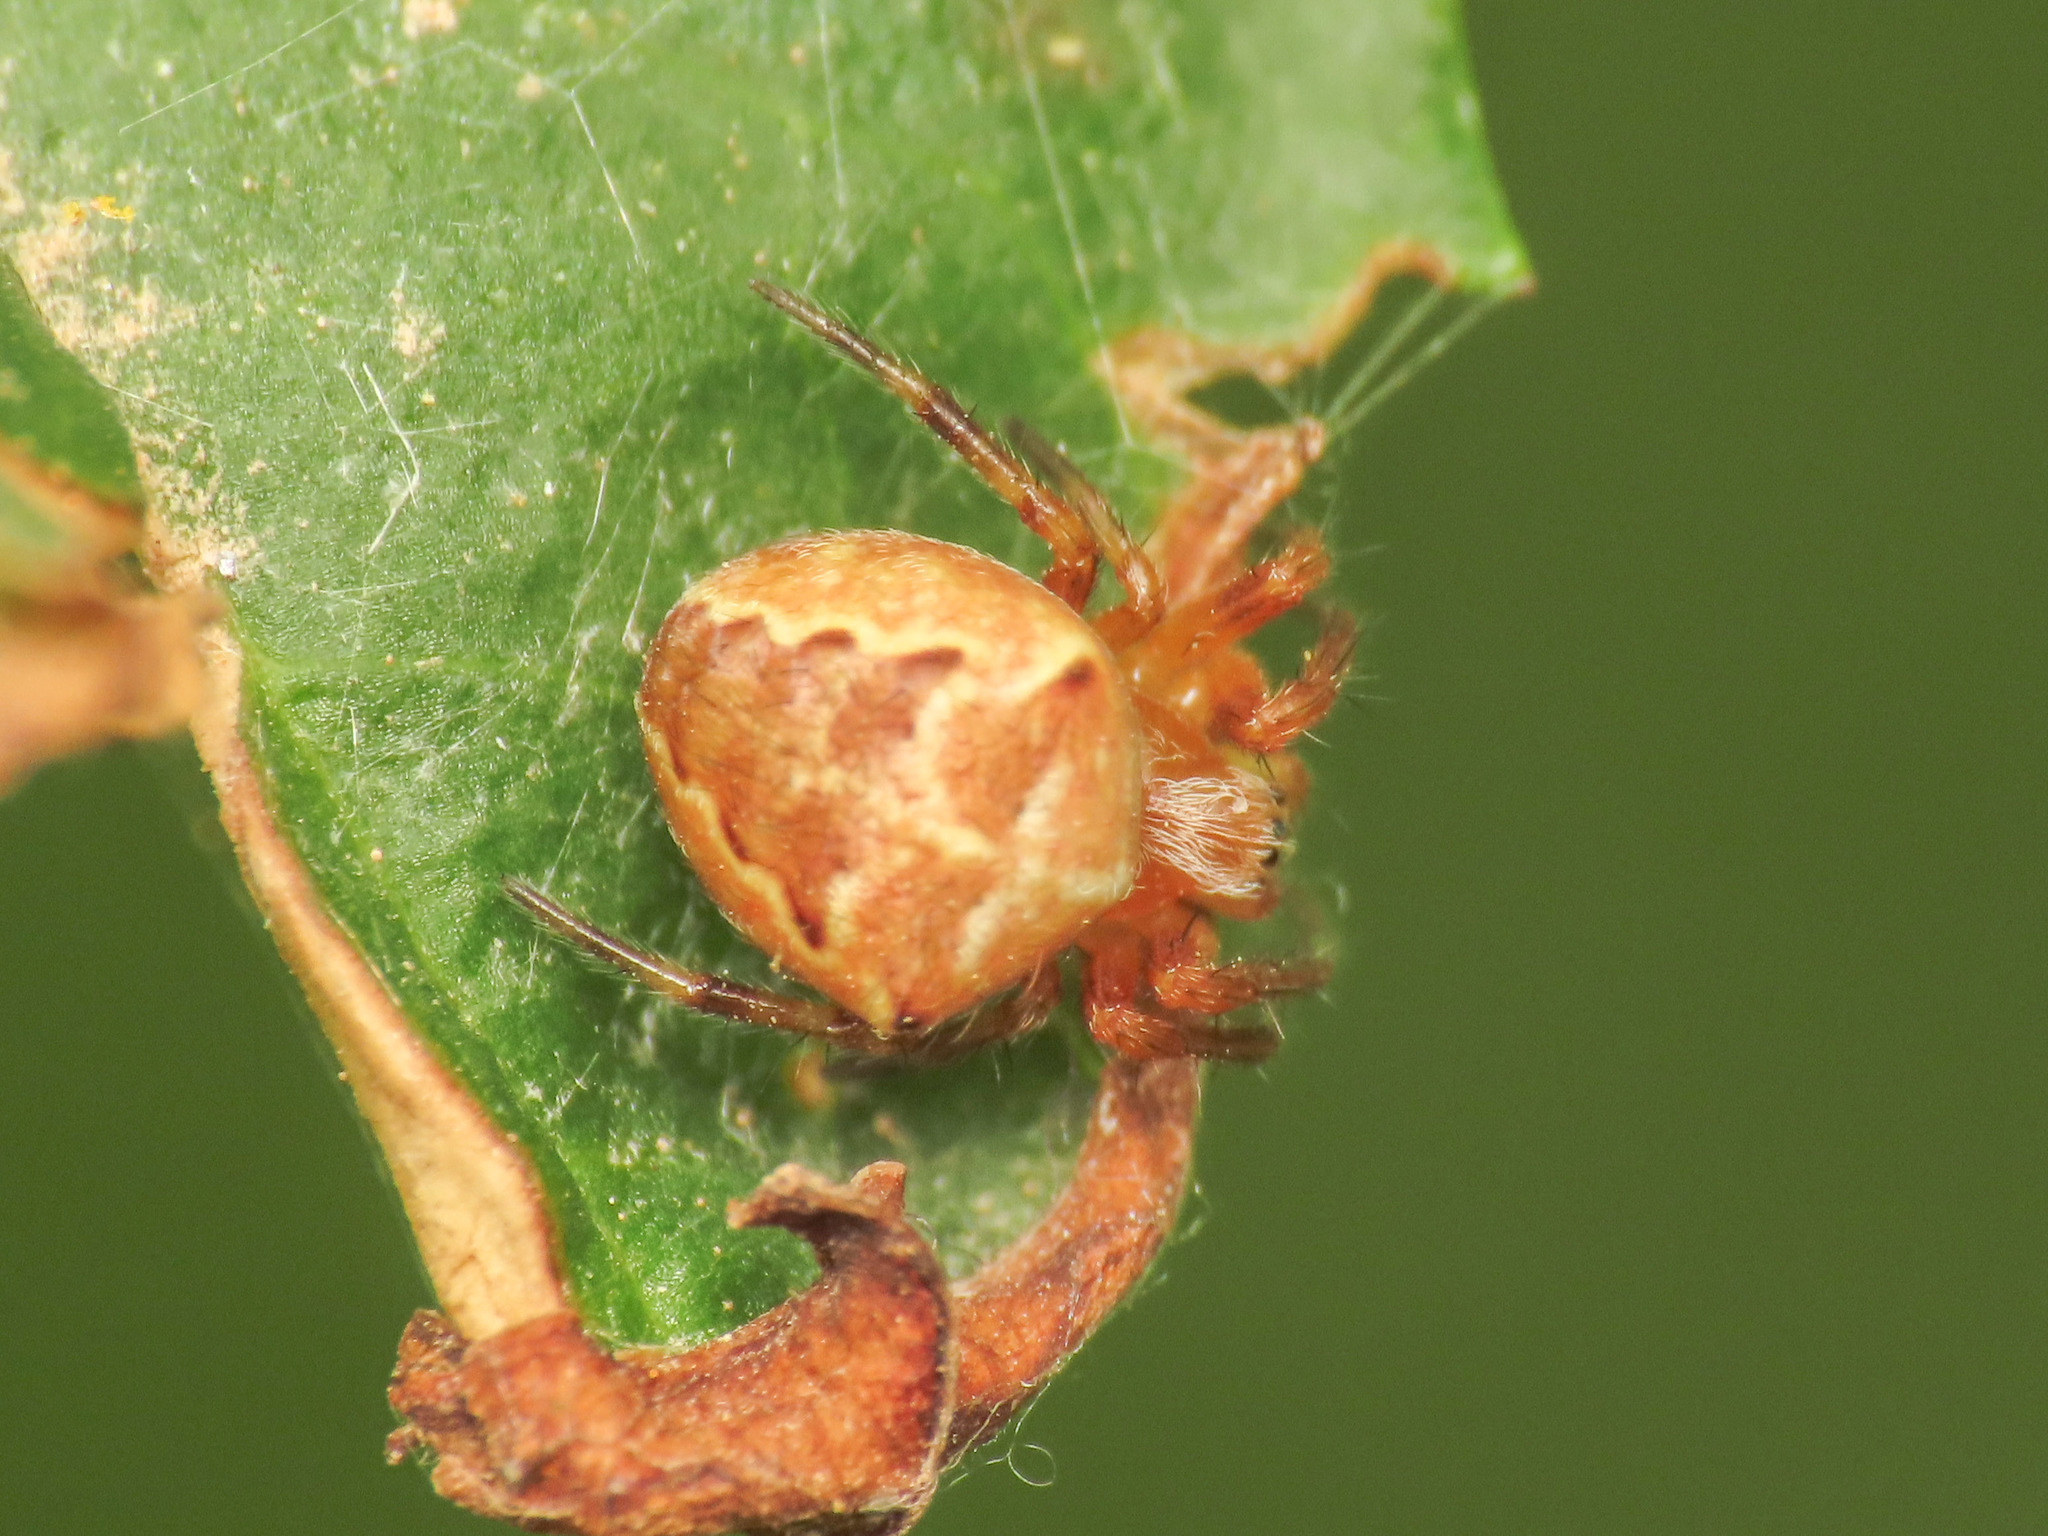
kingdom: Animalia
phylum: Arthropoda
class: Arachnida
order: Araneae
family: Araneidae
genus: Araneus
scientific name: Araneus diadematus
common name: Cross orbweaver
